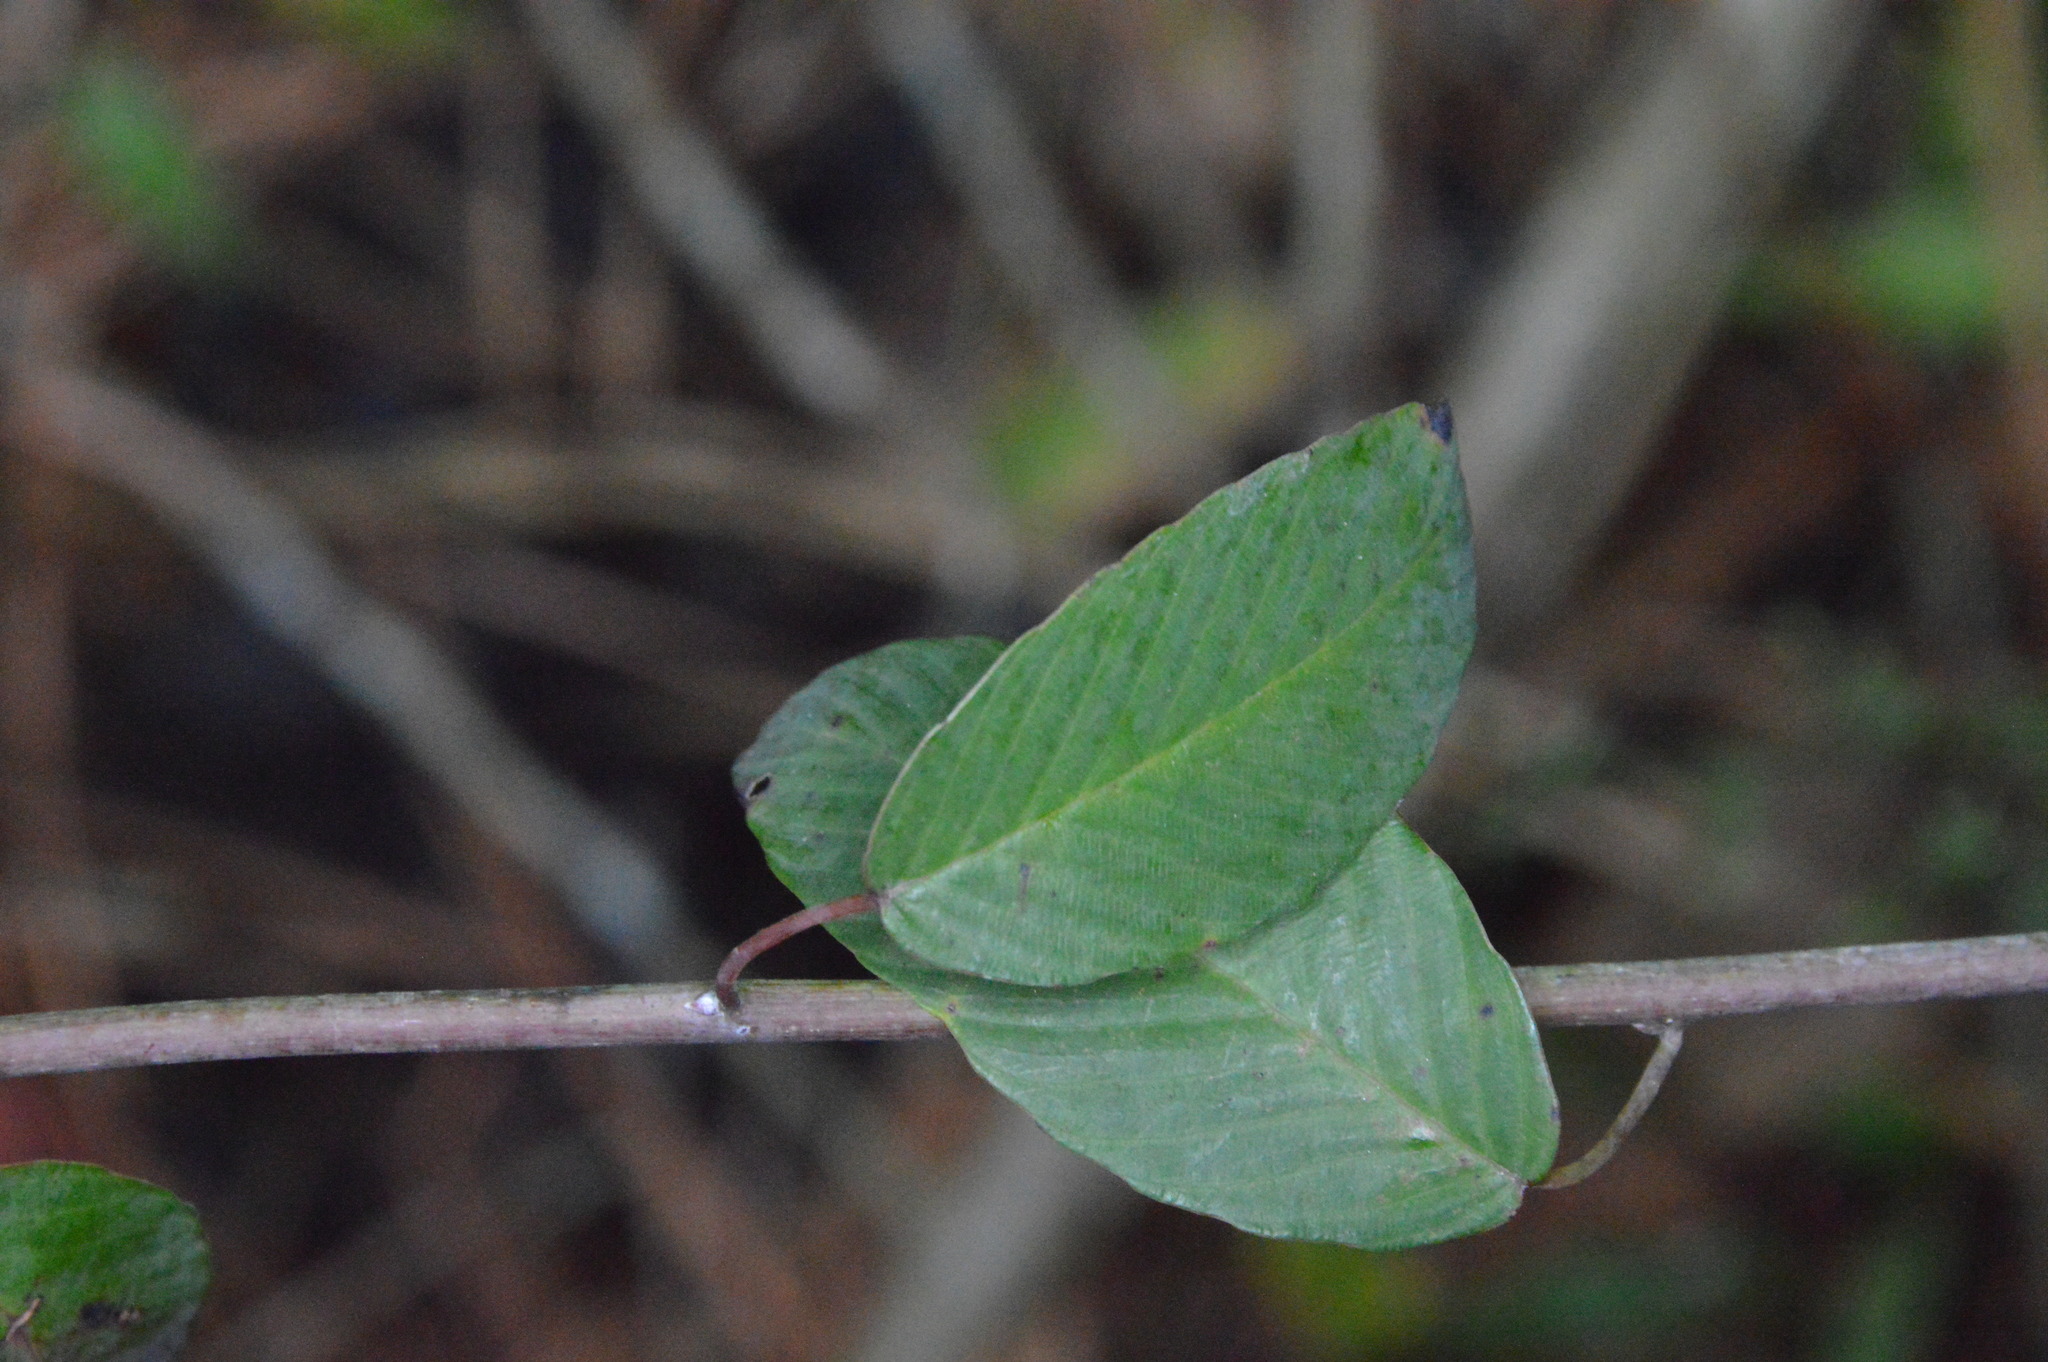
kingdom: Plantae
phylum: Tracheophyta
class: Magnoliopsida
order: Rosales
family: Rhamnaceae
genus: Berchemia
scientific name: Berchemia scandens
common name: Supplejack
